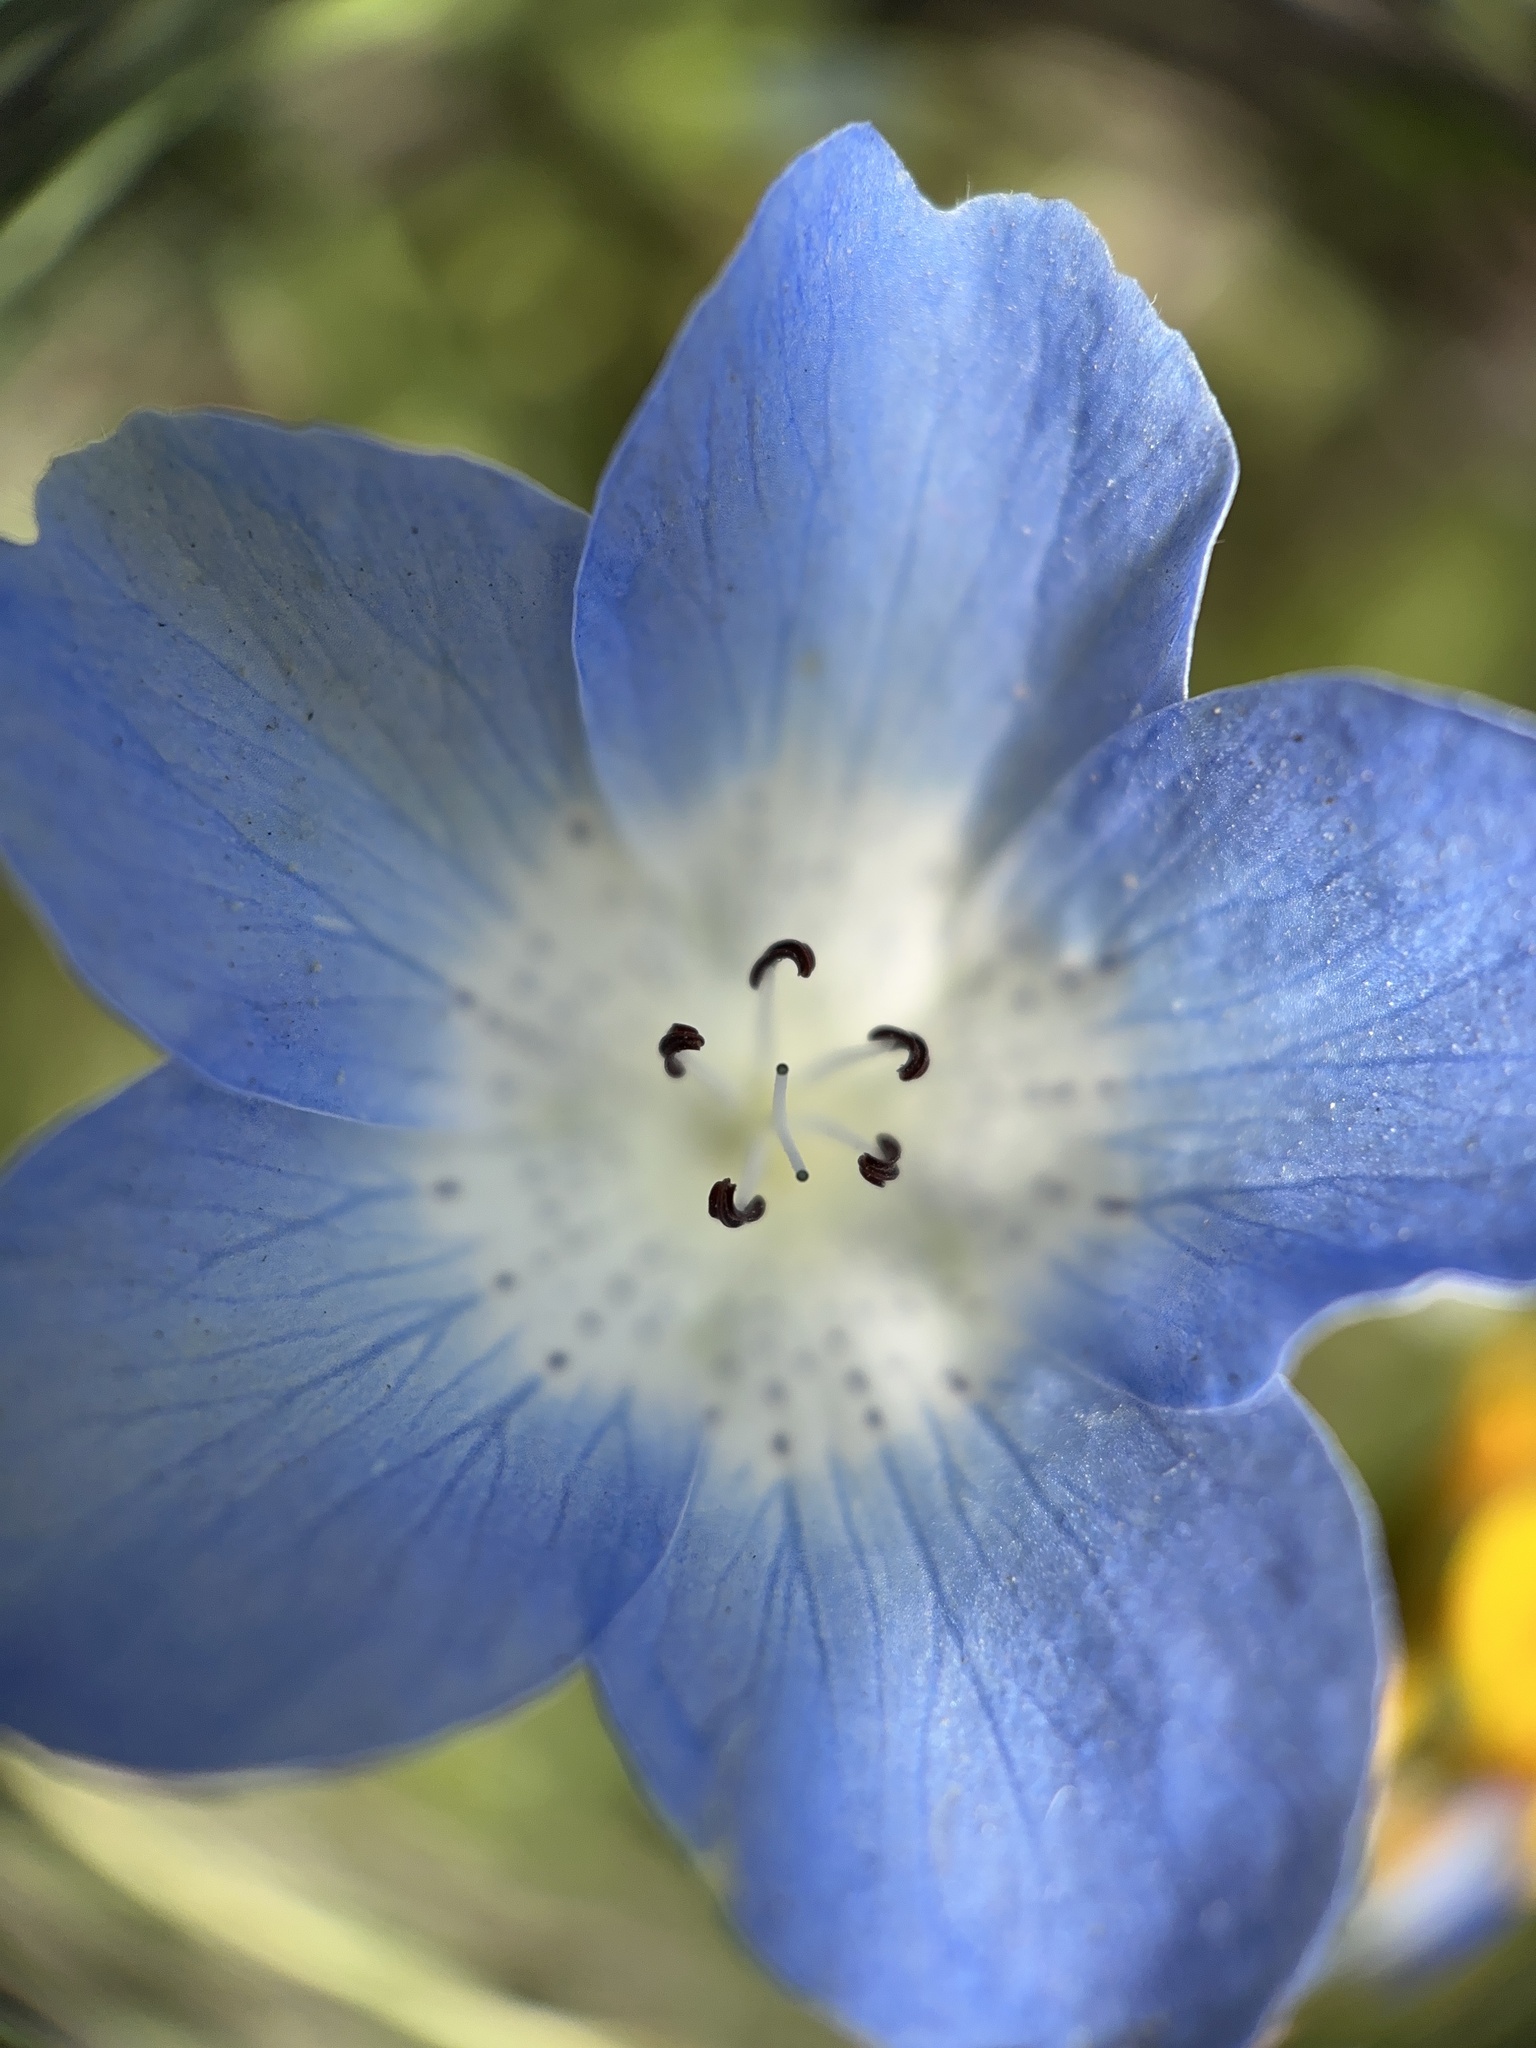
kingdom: Plantae
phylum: Tracheophyta
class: Magnoliopsida
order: Boraginales
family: Hydrophyllaceae
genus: Nemophila
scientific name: Nemophila menziesii
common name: Baby's-blue-eyes
